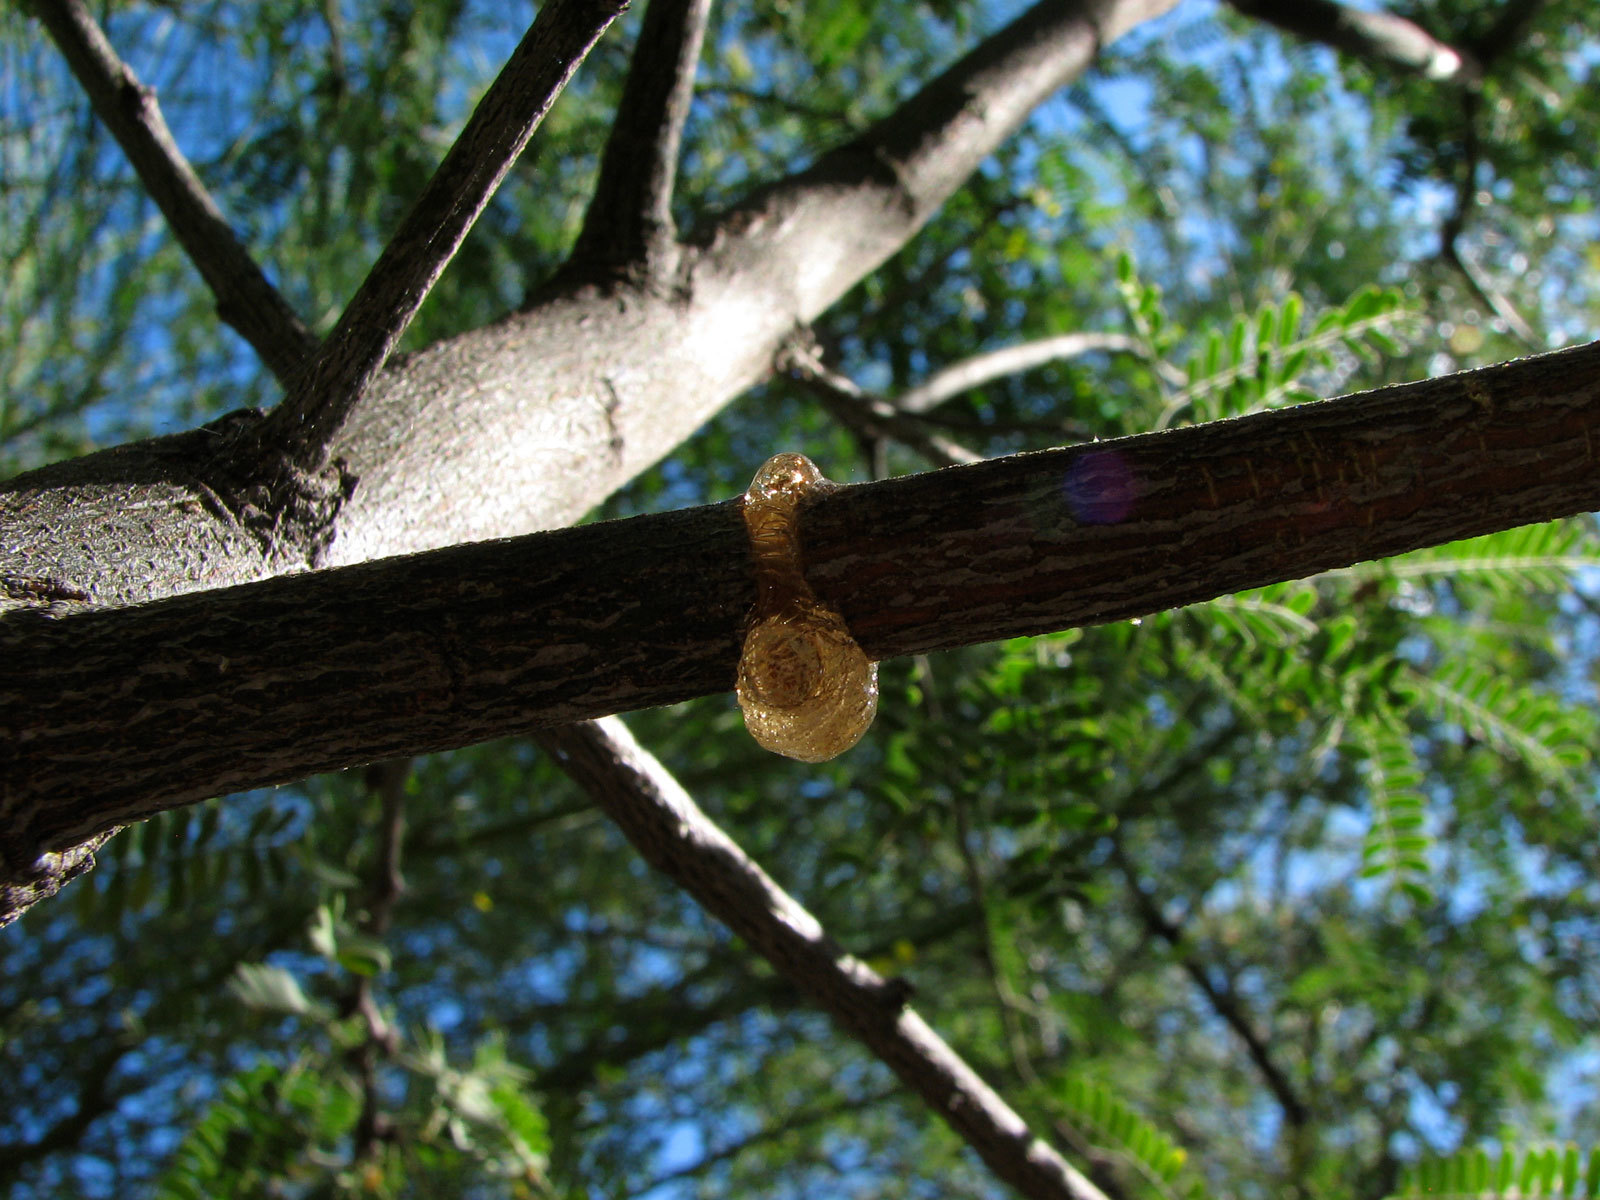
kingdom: Animalia
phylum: Arthropoda
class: Insecta
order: Coleoptera
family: Cerambycidae
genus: Oncideres
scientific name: Oncideres rhodosticta
